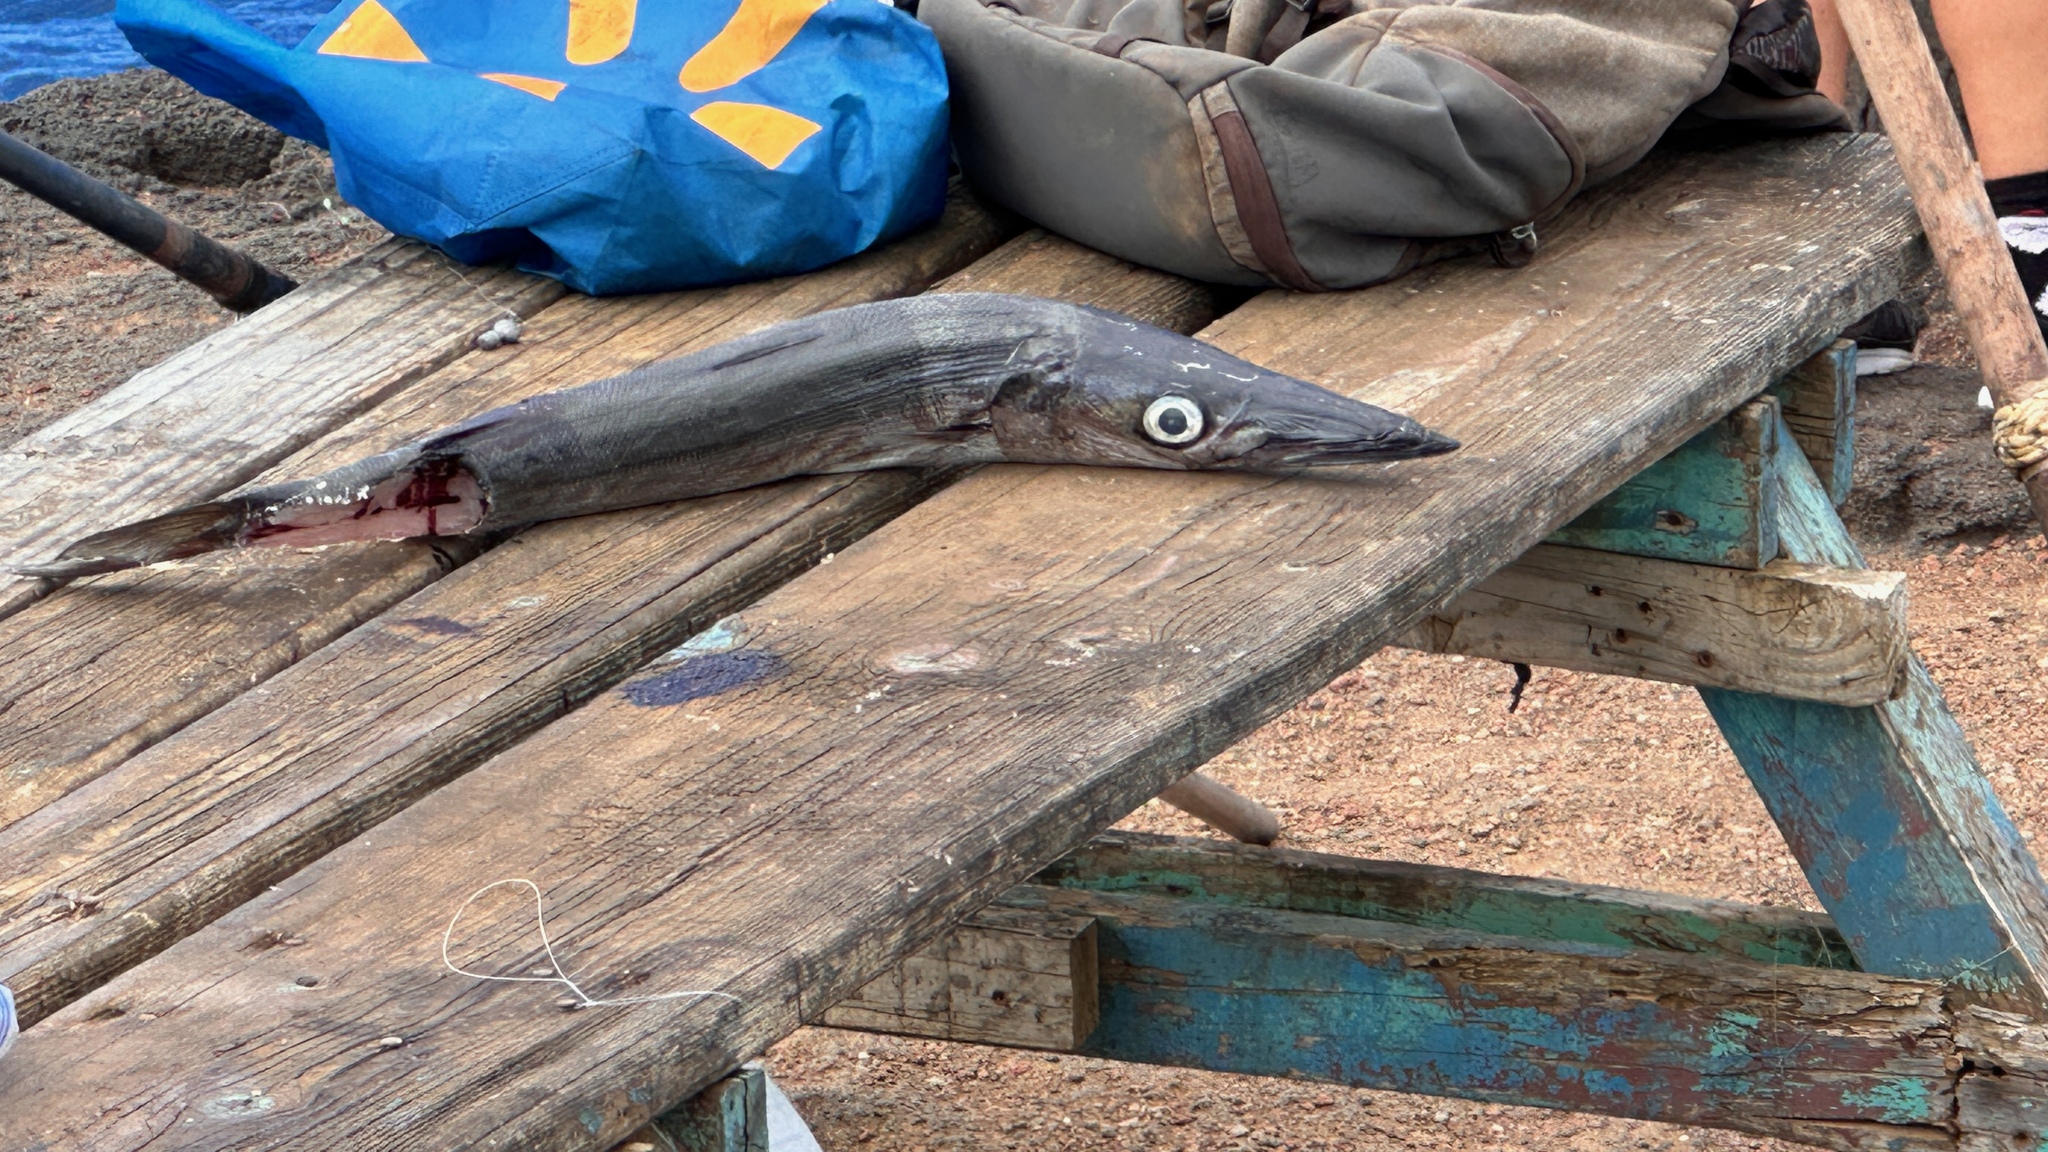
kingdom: Animalia
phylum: Chordata
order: Perciformes
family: Sphyraenidae
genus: Sphyraena
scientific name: Sphyraena helleri
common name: Heller's barracuda
